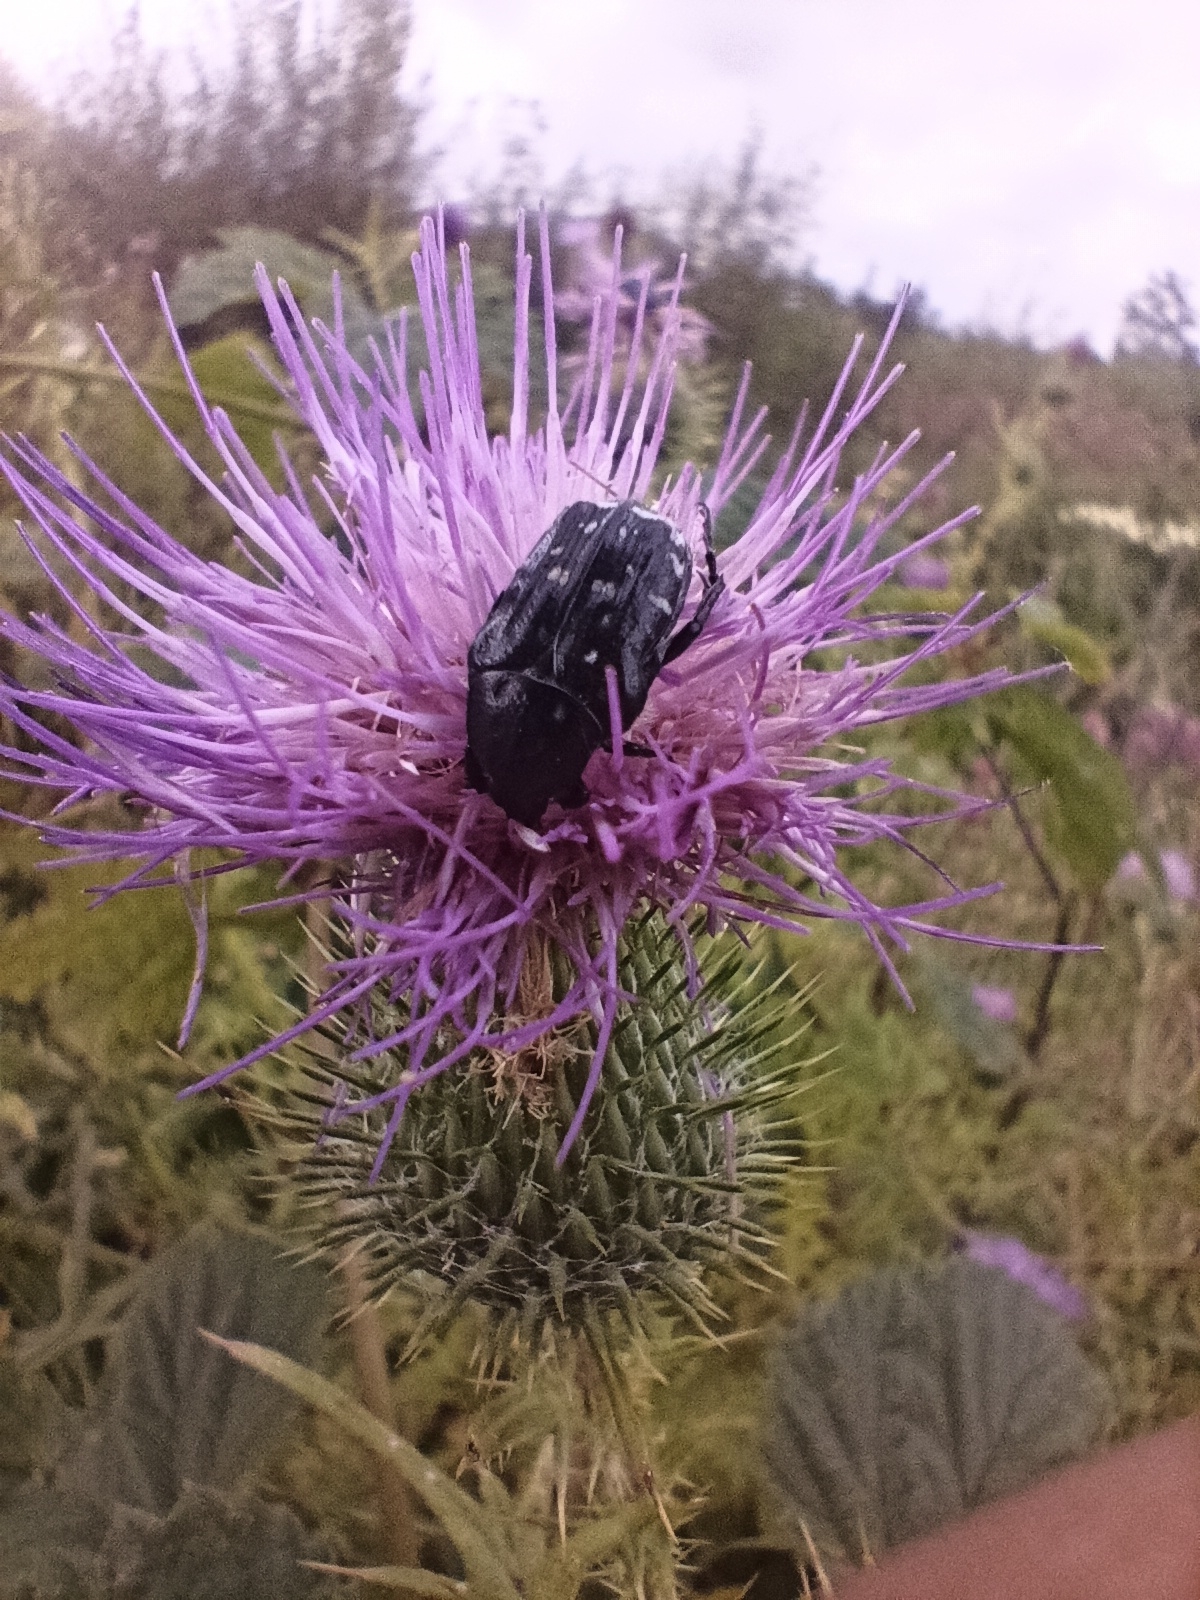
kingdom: Animalia
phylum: Arthropoda
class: Insecta
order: Coleoptera
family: Scarabaeidae
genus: Oxythyrea
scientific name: Oxythyrea funesta
